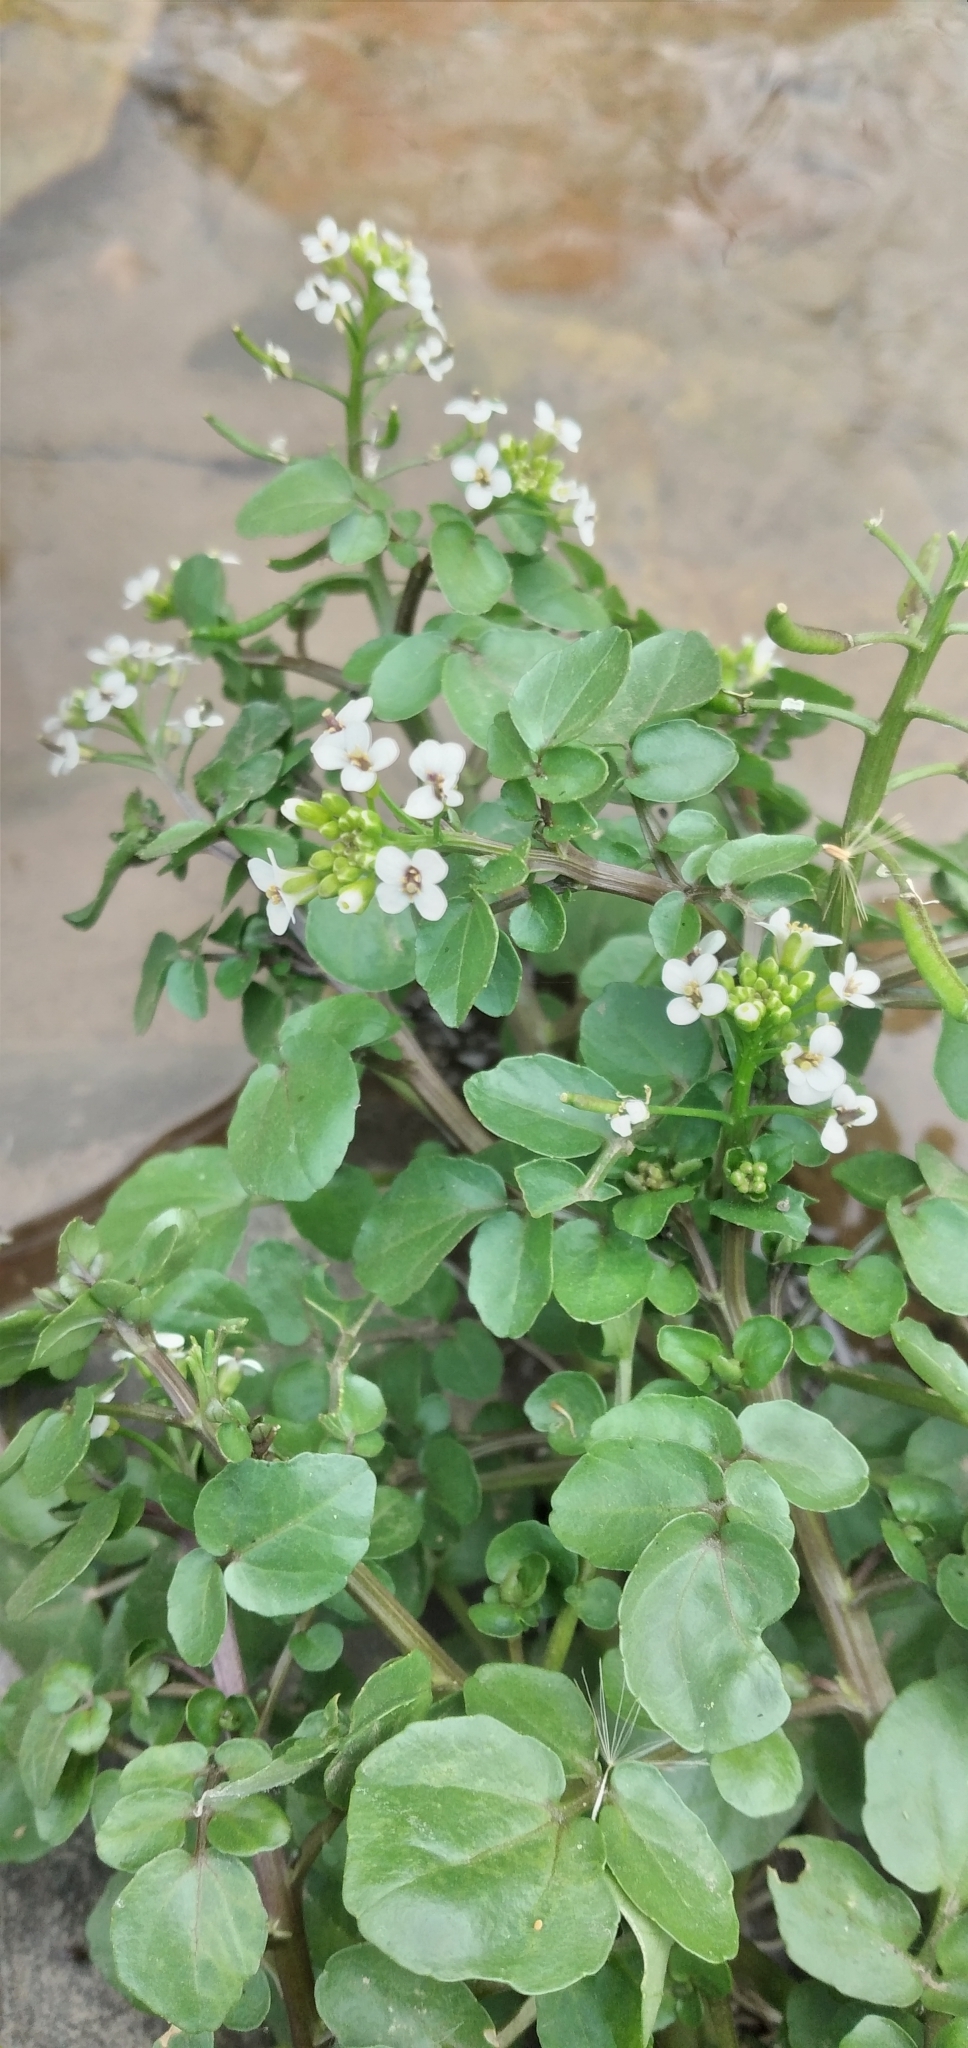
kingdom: Plantae
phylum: Tracheophyta
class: Magnoliopsida
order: Brassicales
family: Brassicaceae
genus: Nasturtium
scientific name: Nasturtium officinale
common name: Watercress
